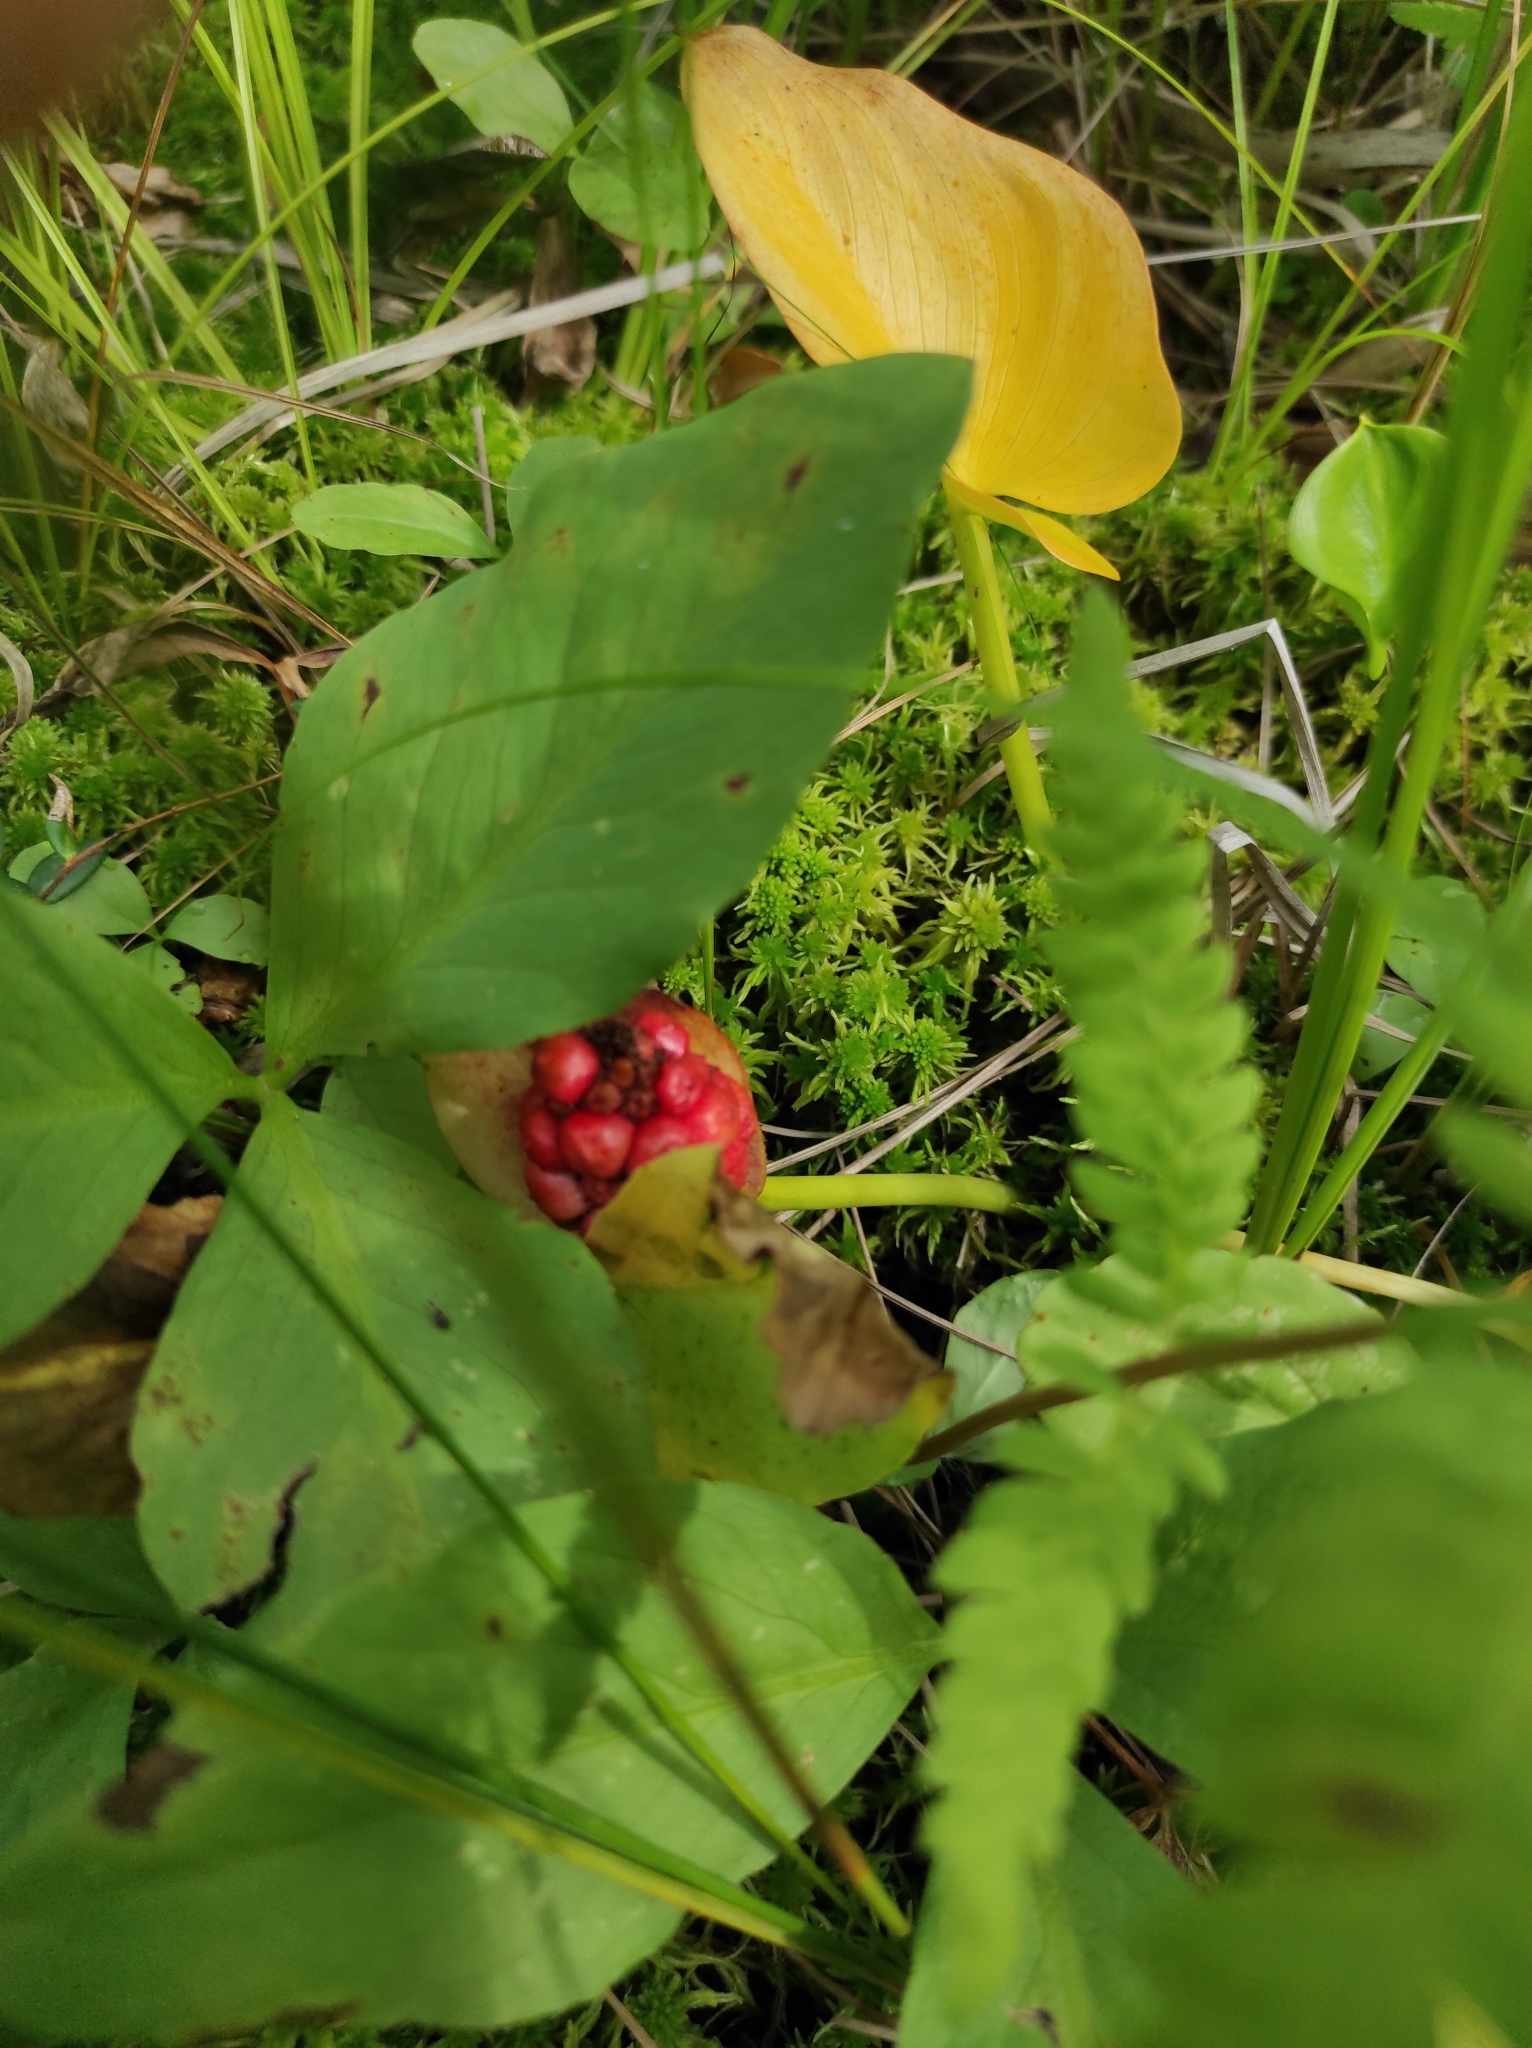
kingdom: Plantae
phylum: Tracheophyta
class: Liliopsida
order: Alismatales
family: Araceae
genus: Calla
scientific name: Calla palustris
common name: Bog arum
